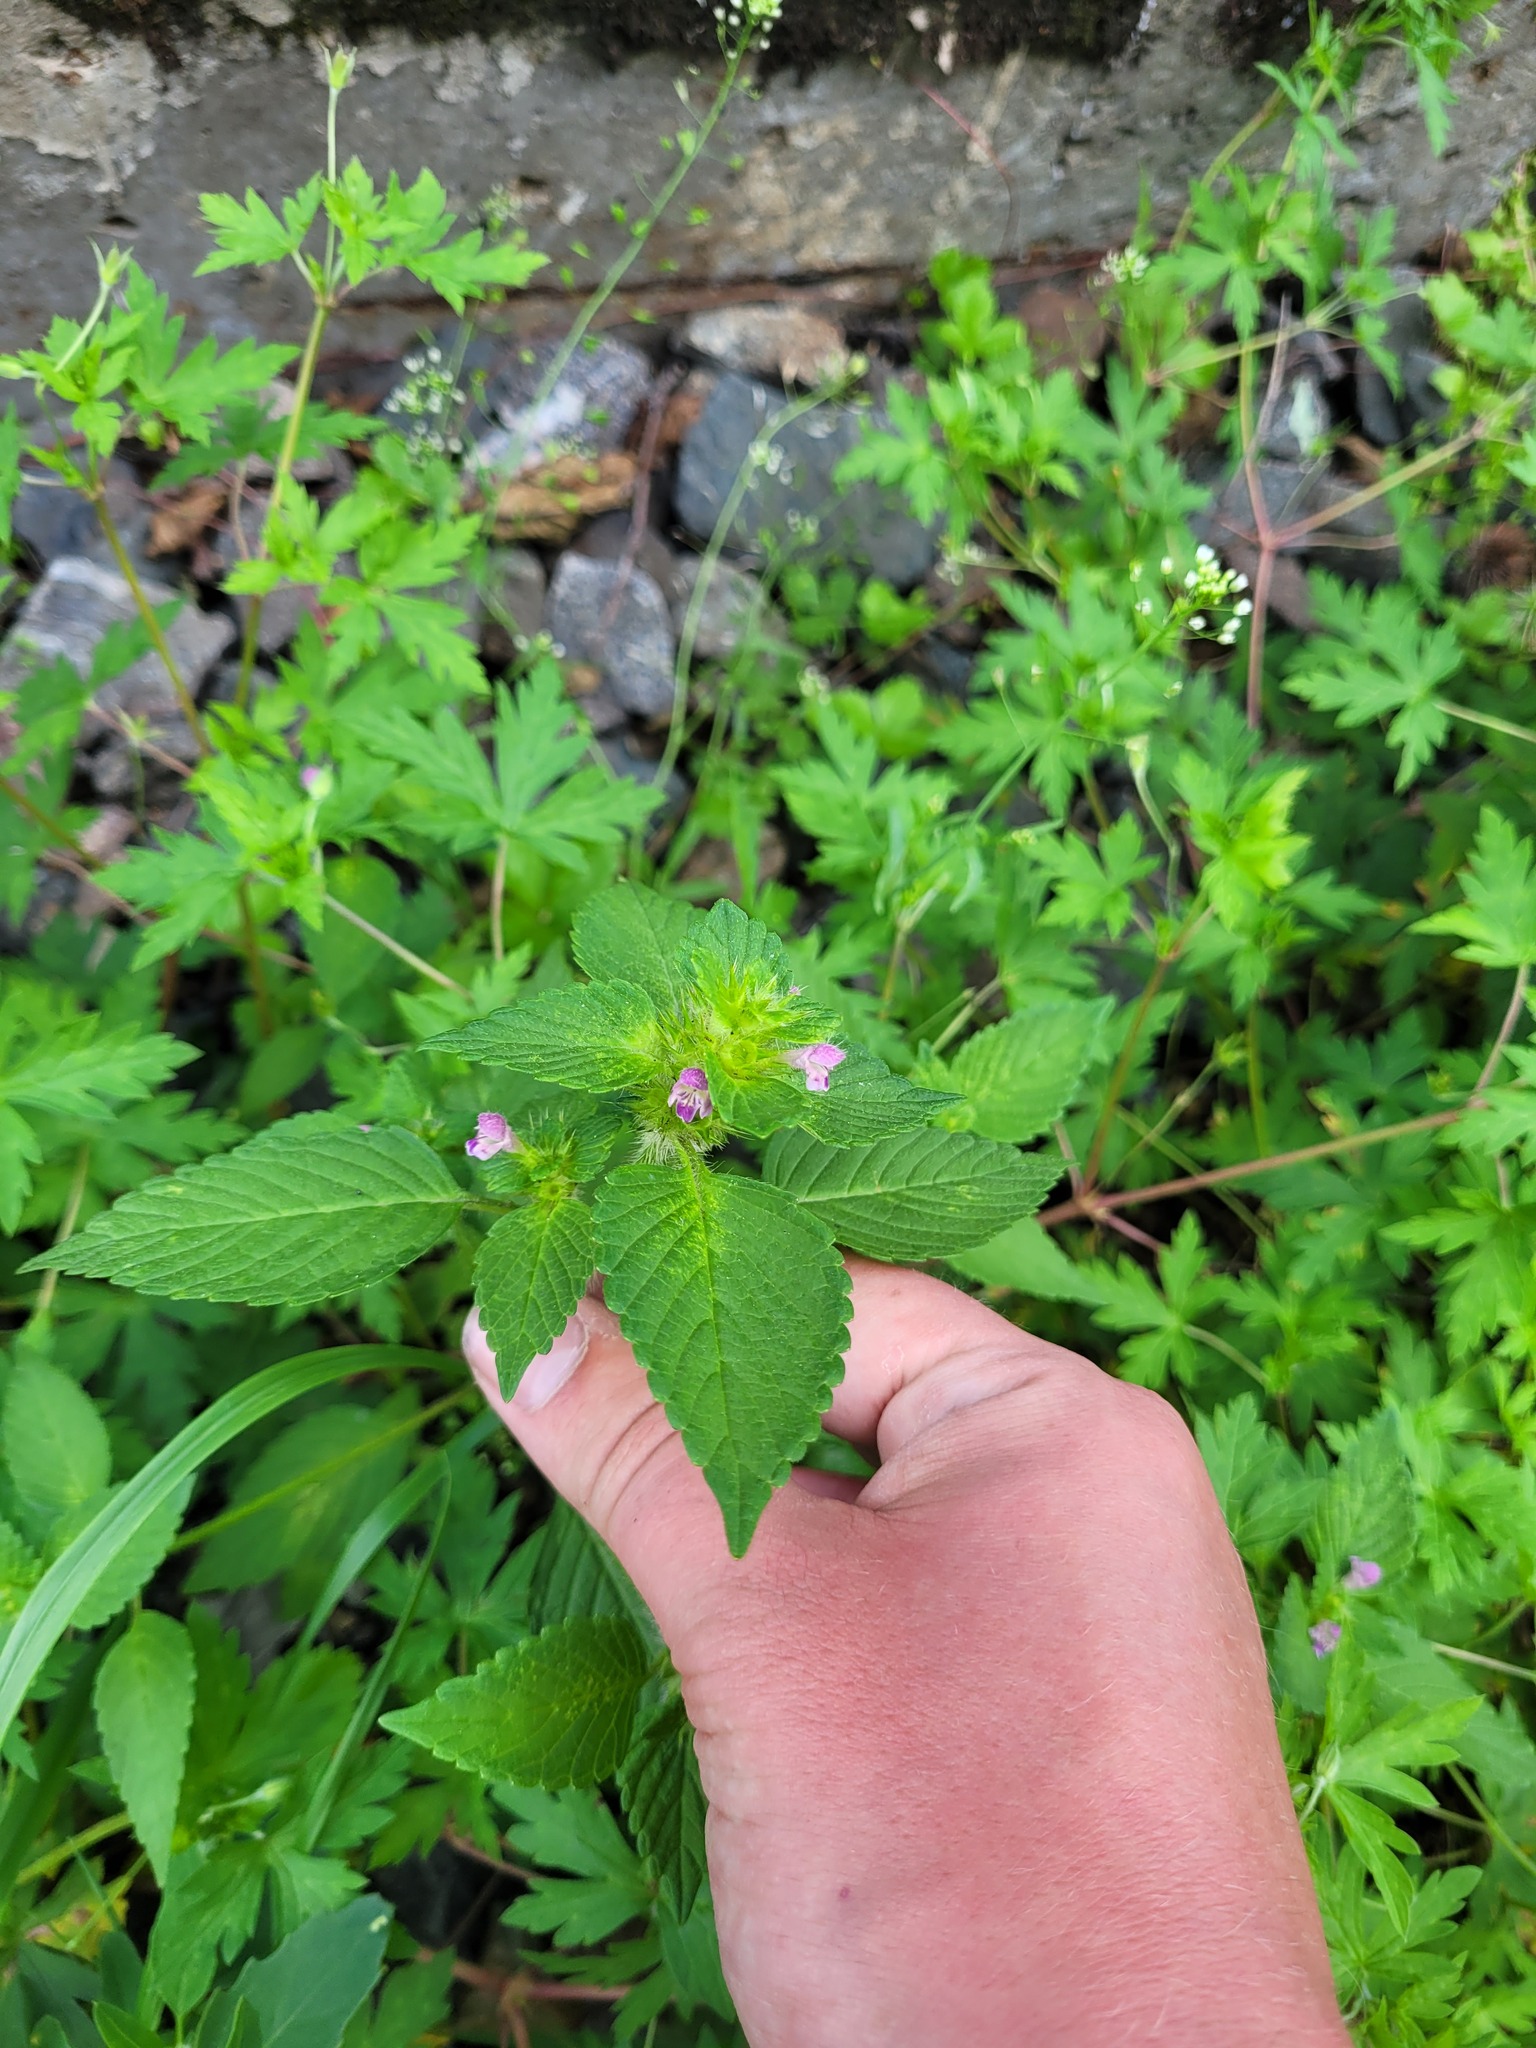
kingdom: Plantae
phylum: Tracheophyta
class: Magnoliopsida
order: Lamiales
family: Lamiaceae
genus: Galeopsis
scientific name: Galeopsis bifida
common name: Bifid hemp-nettle
